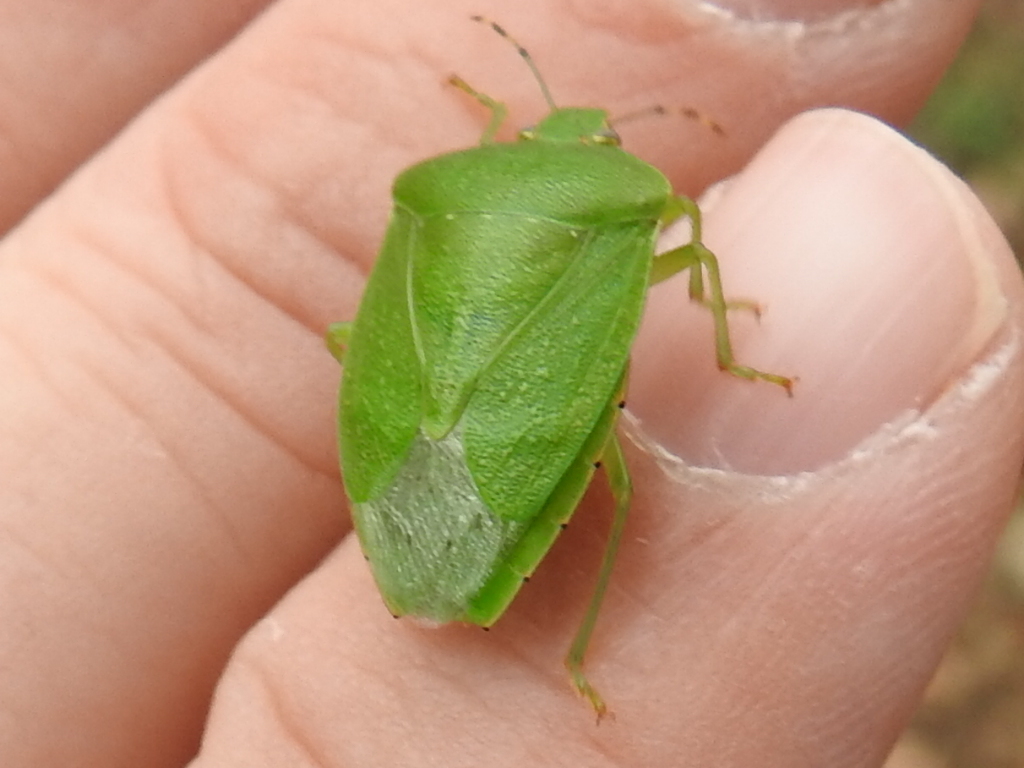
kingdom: Animalia
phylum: Arthropoda
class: Insecta
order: Hemiptera
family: Pentatomidae
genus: Chinavia
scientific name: Chinavia hilaris
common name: Green stink bug
